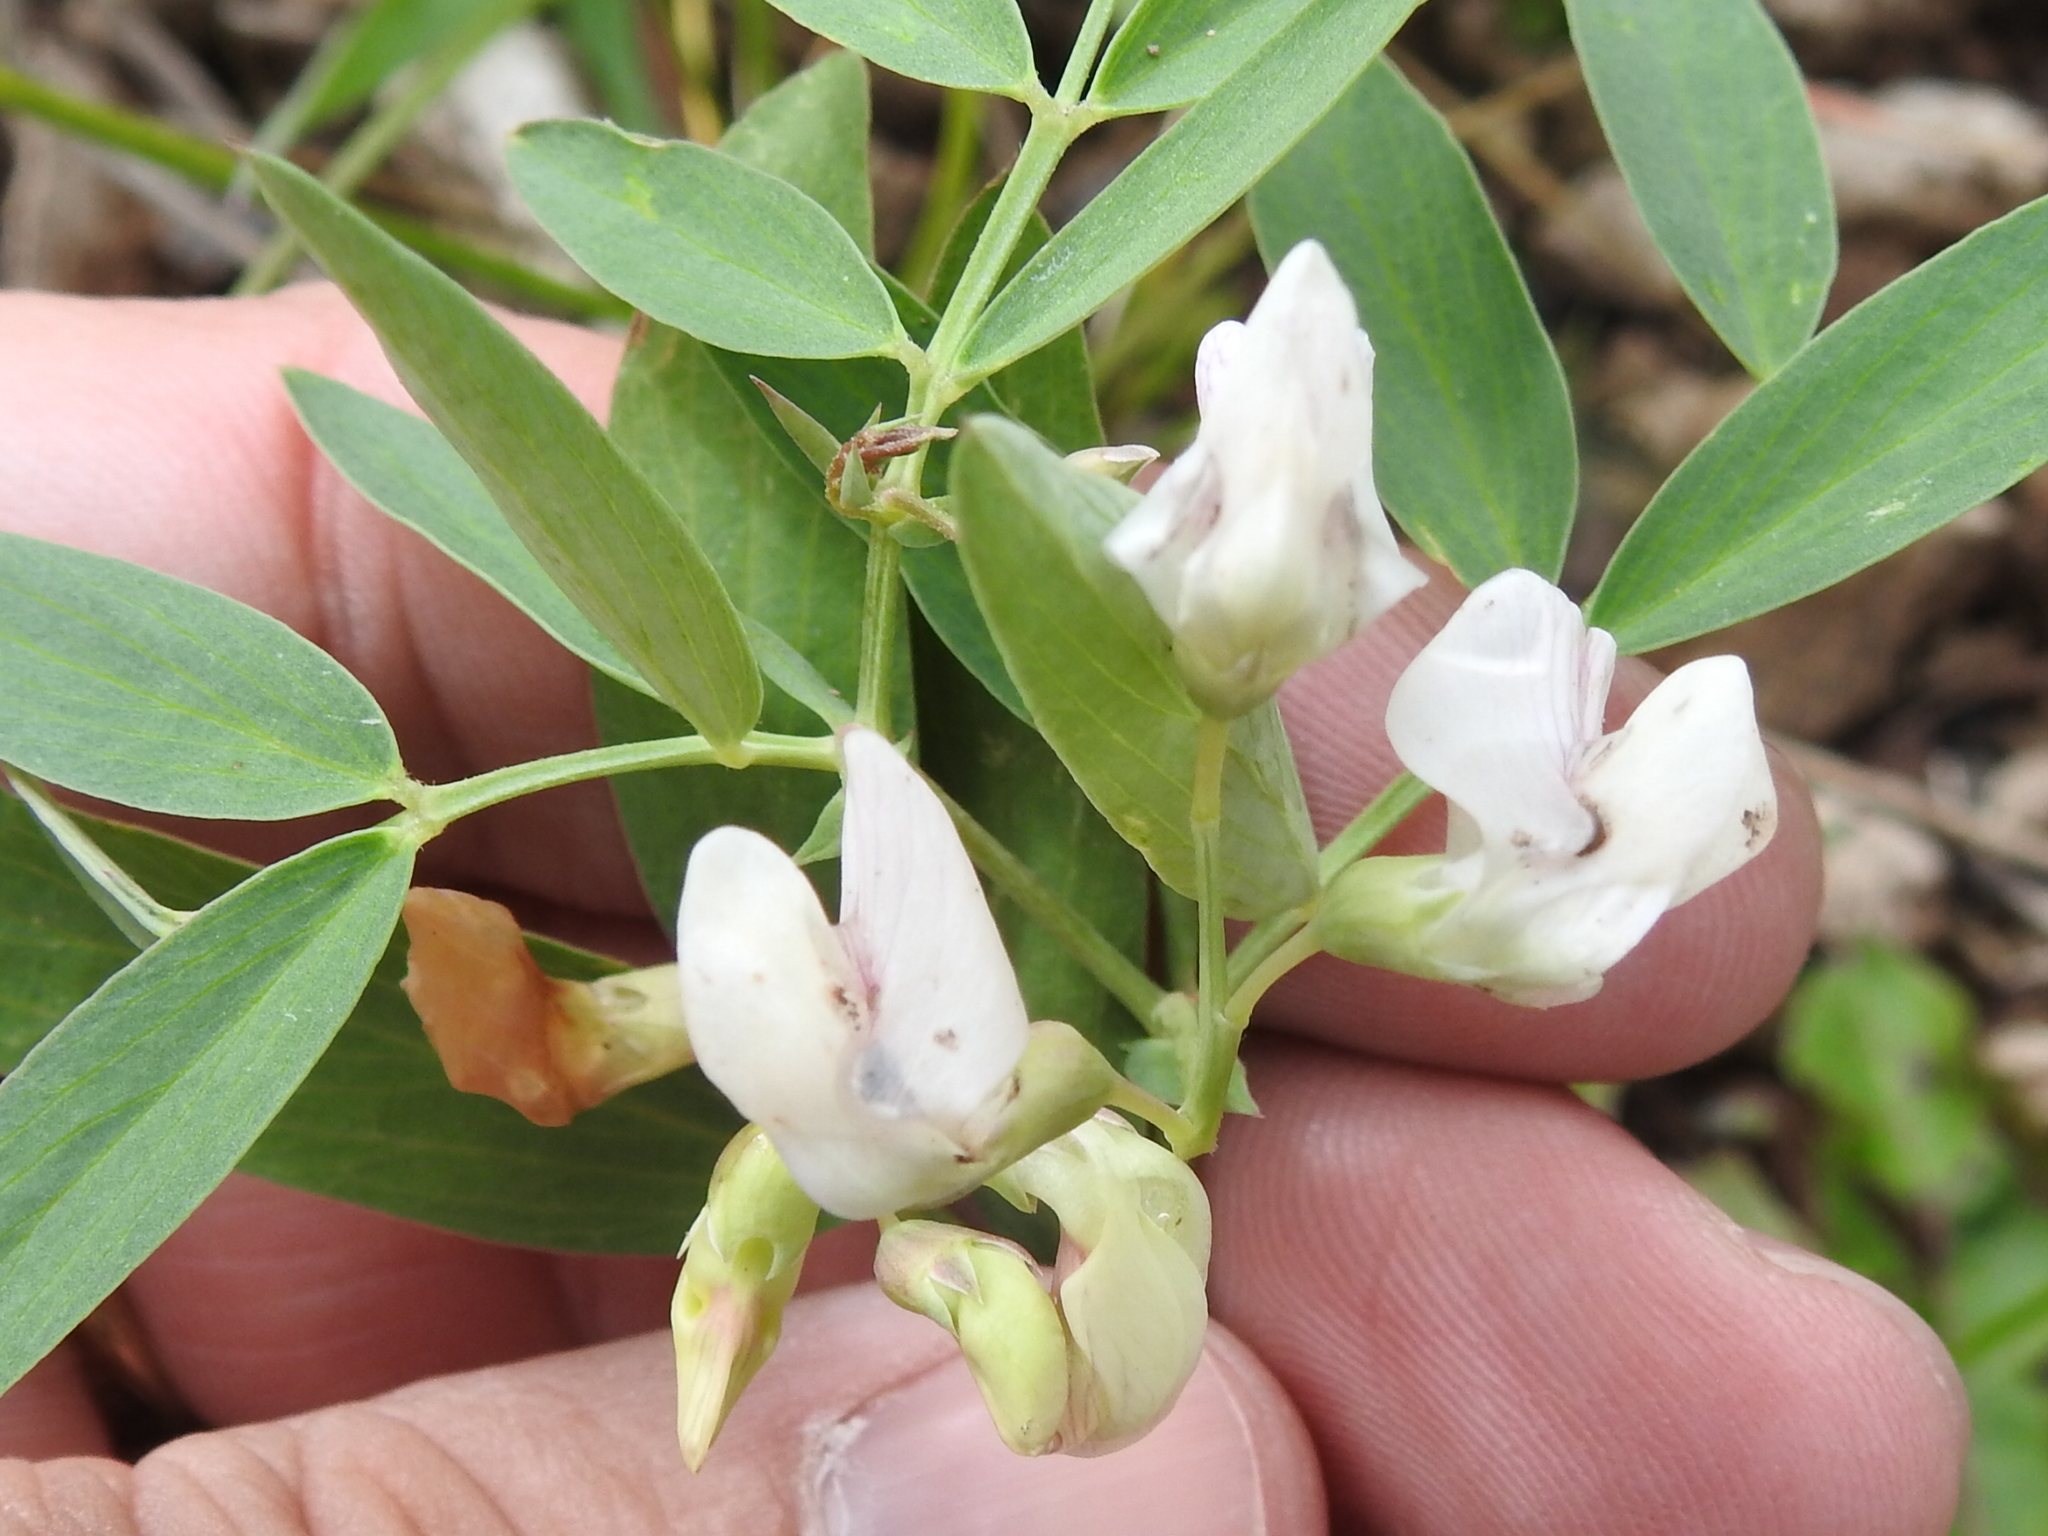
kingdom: Plantae
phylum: Tracheophyta
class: Magnoliopsida
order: Fabales
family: Fabaceae
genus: Lathyrus
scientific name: Lathyrus lanszwertii
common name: Lanszwert's vetchling
